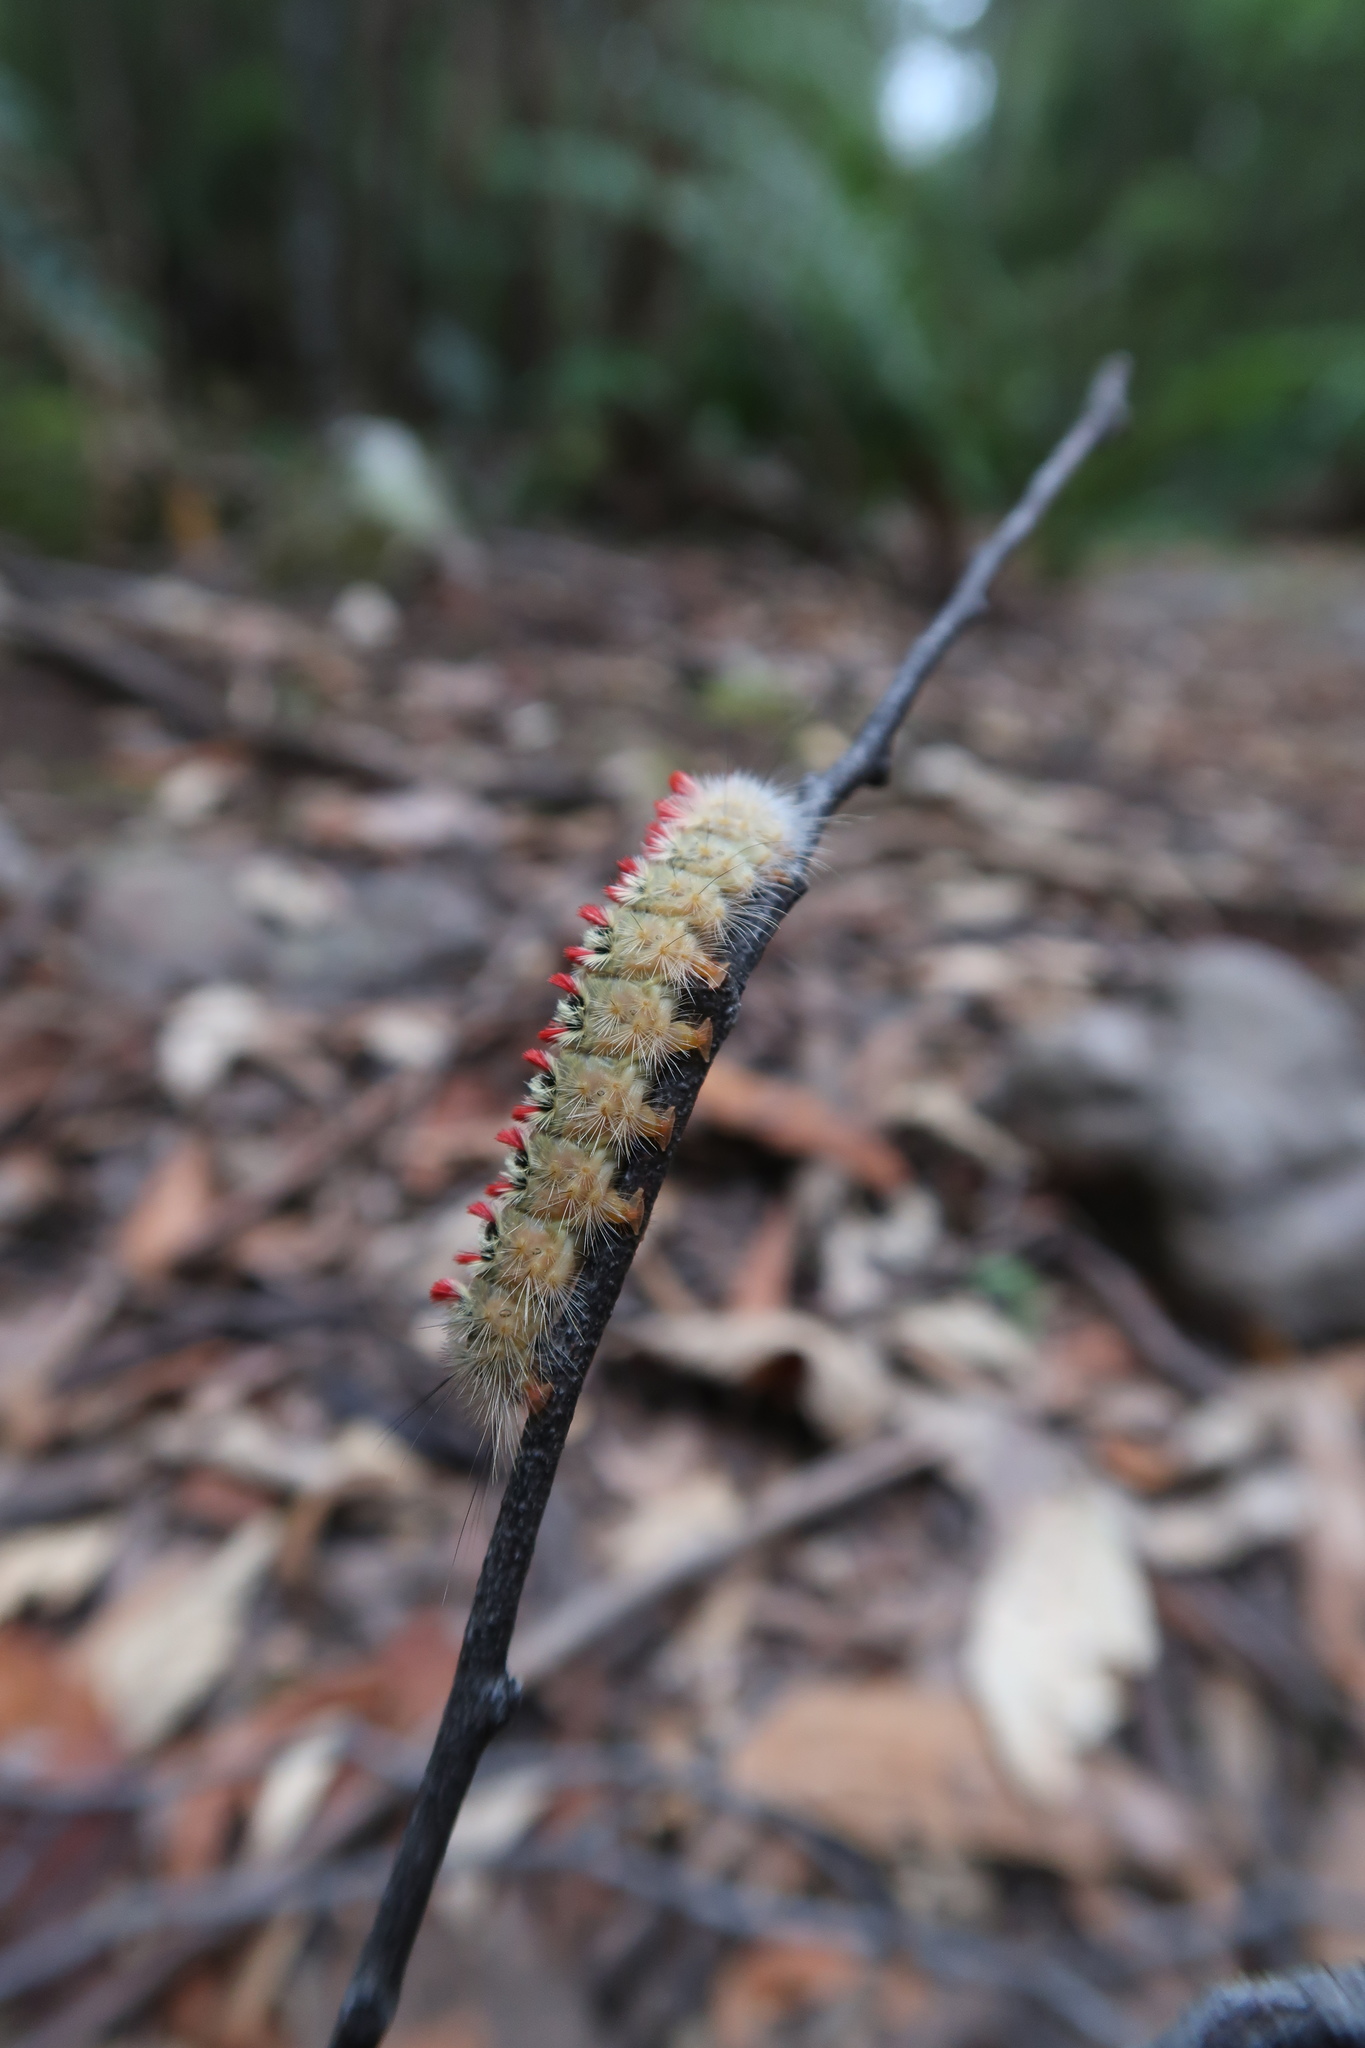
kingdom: Animalia
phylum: Arthropoda
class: Insecta
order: Lepidoptera
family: Notodontidae
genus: Trichiocercus
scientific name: Trichiocercus sparshalli
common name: Long-tailed satin
